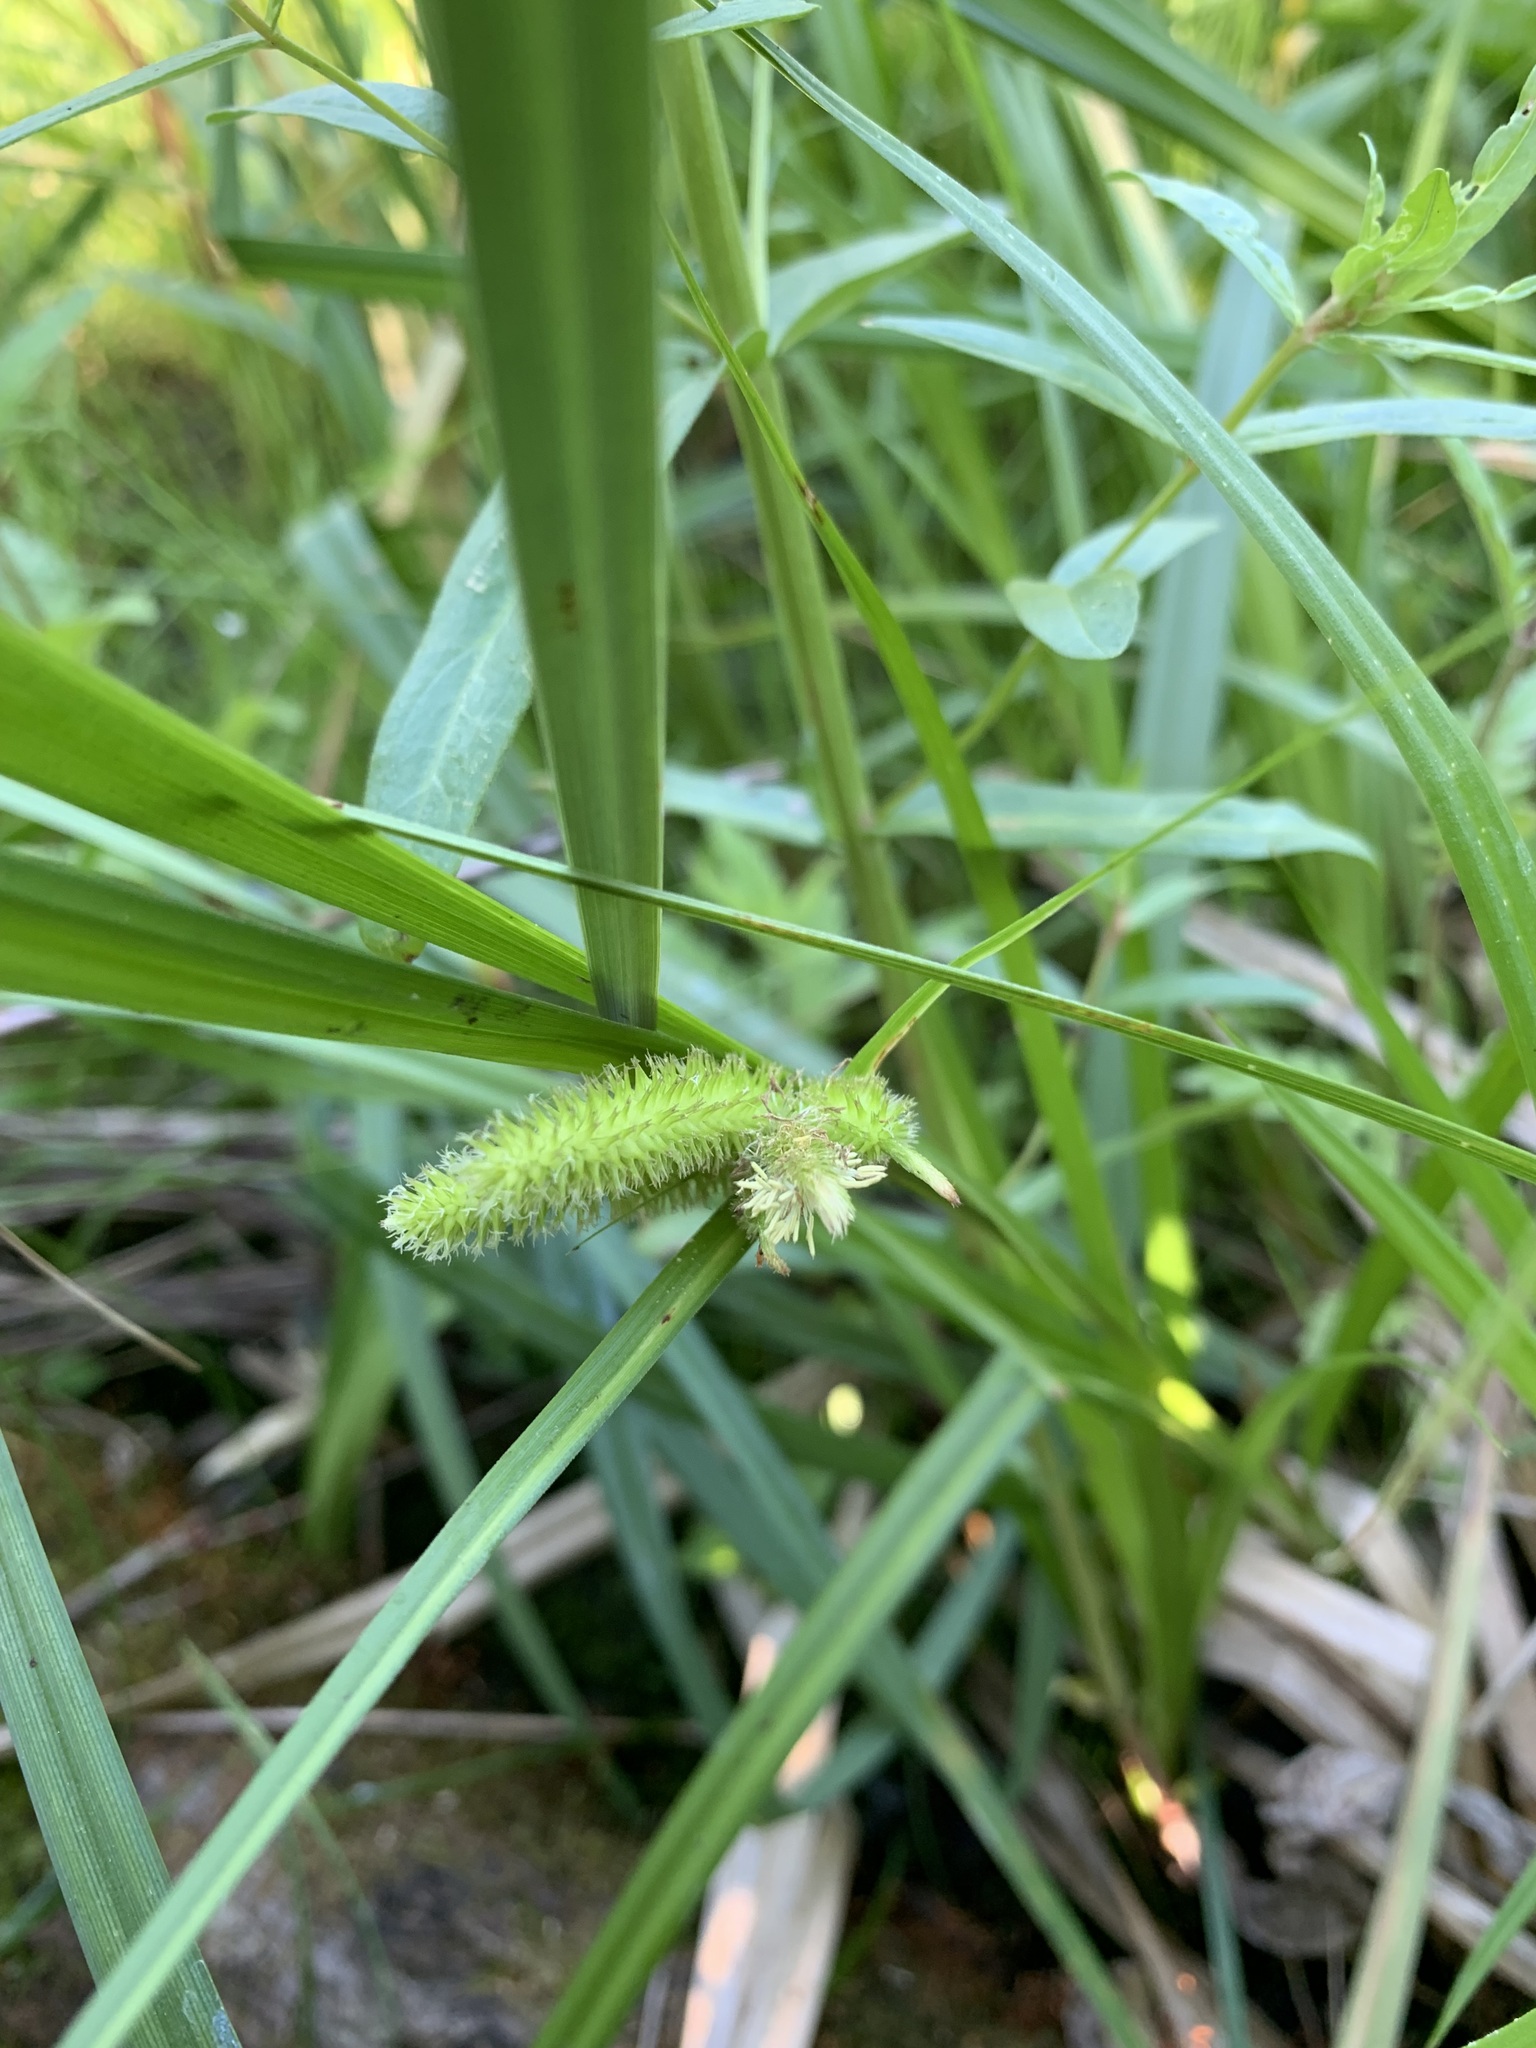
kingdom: Plantae
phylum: Tracheophyta
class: Liliopsida
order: Poales
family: Cyperaceae
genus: Carex
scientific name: Carex pseudocyperus
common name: Cyperus sedge
